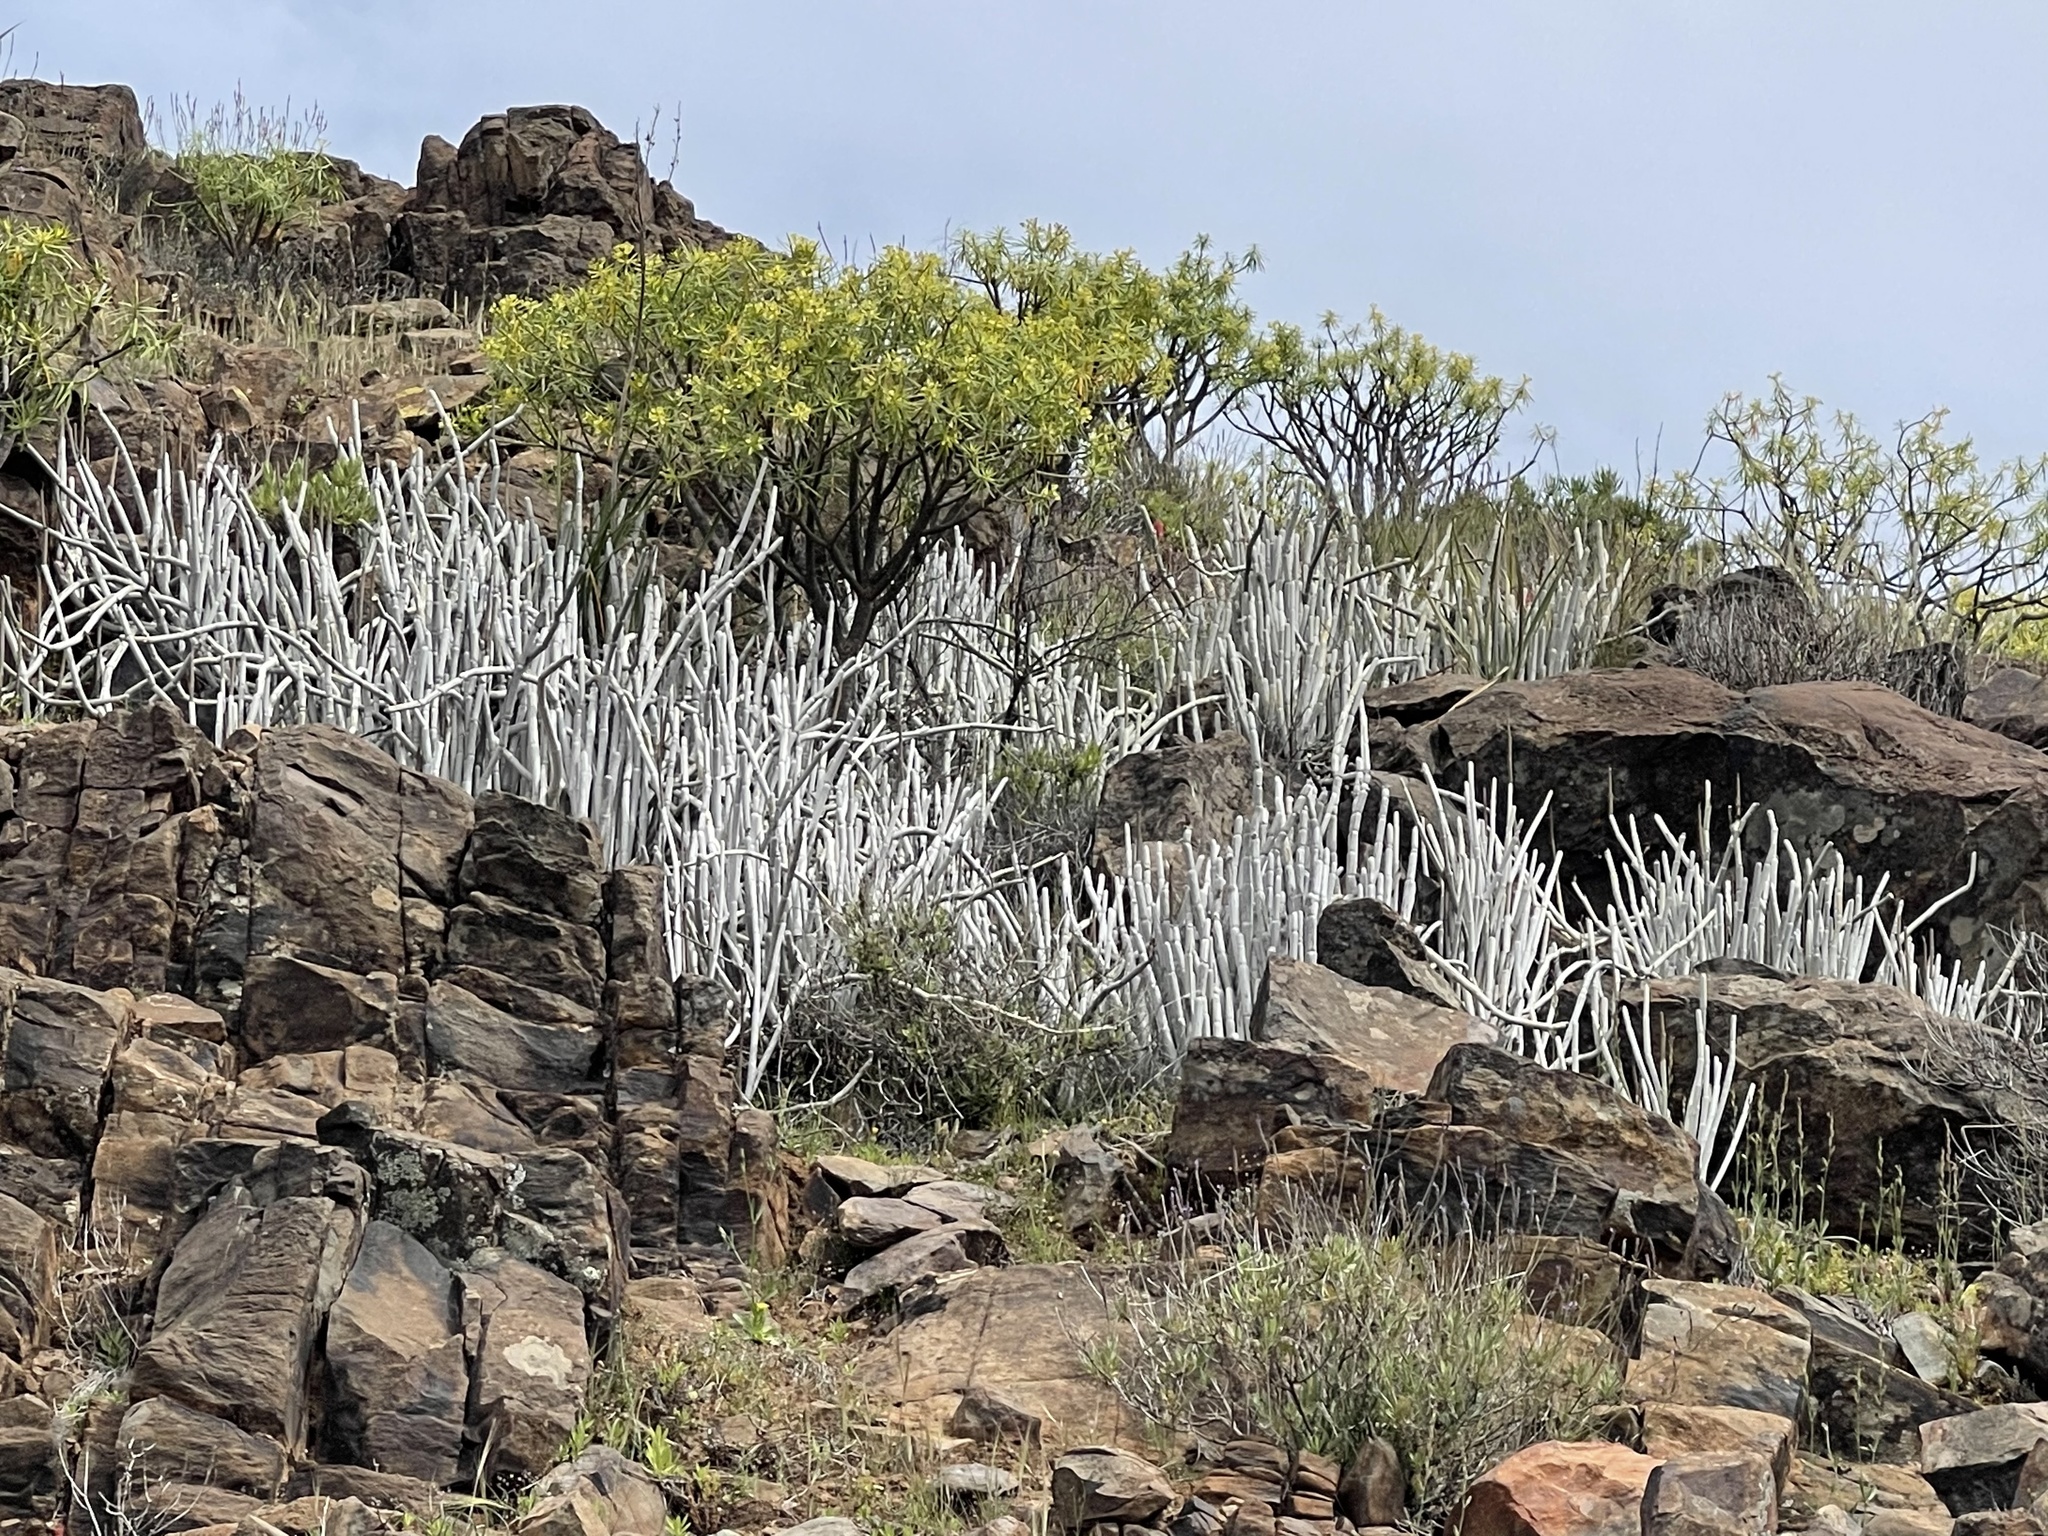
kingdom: Plantae
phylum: Tracheophyta
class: Magnoliopsida
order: Gentianales
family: Apocynaceae
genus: Ceropegia
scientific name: Ceropegia fusca
